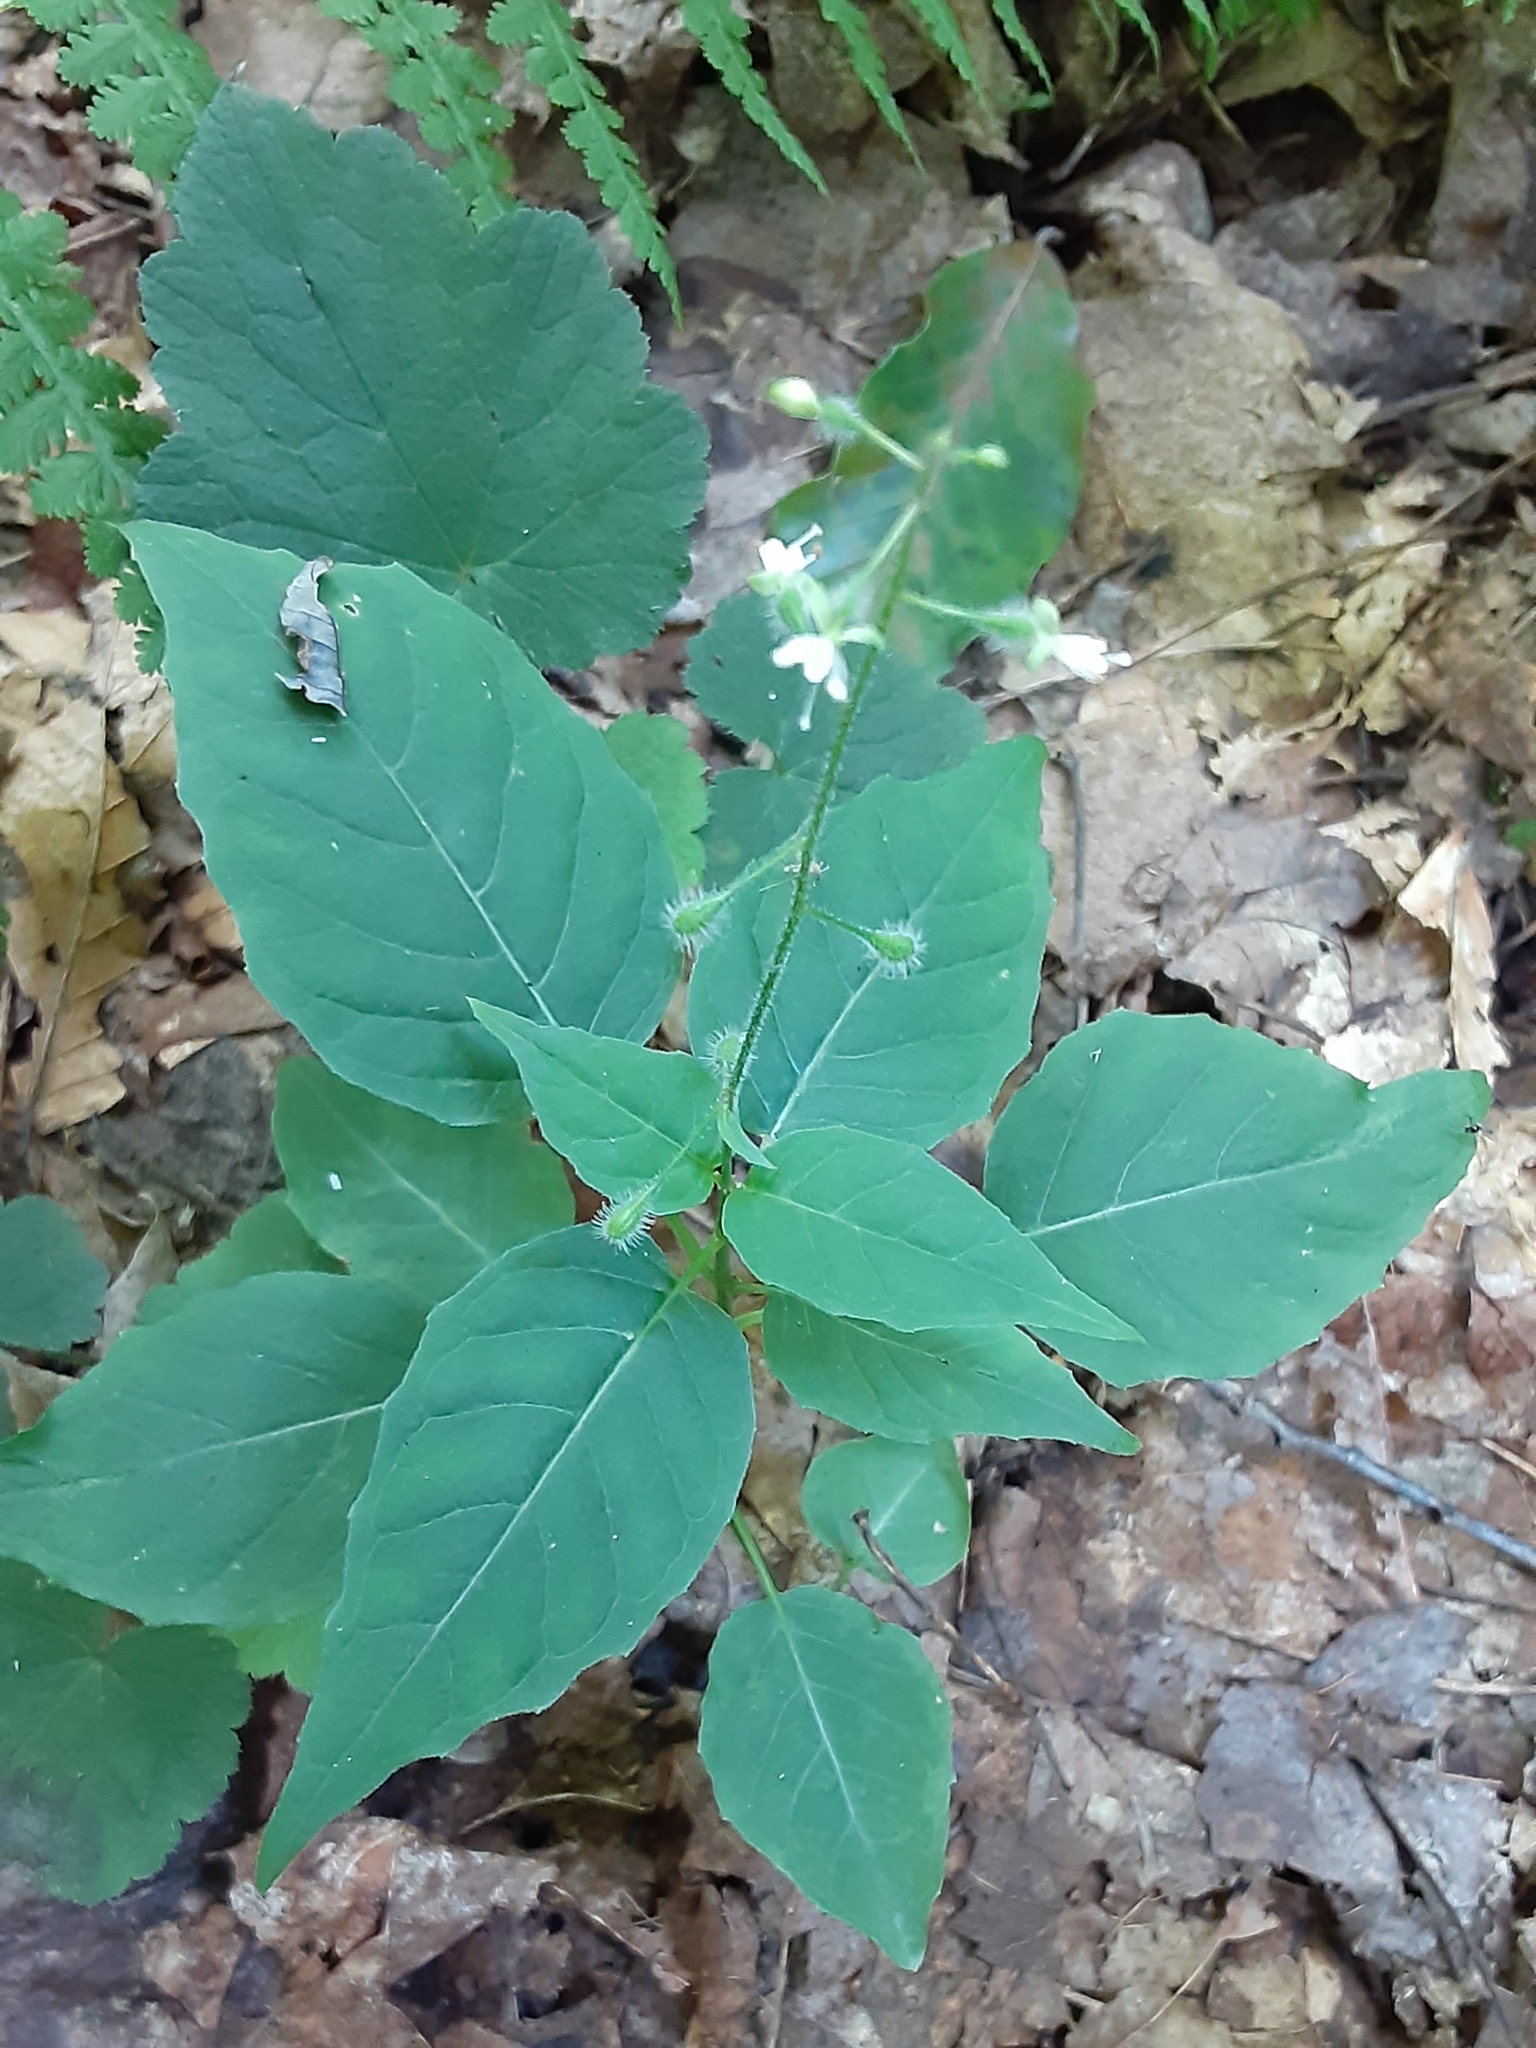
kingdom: Plantae
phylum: Tracheophyta
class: Magnoliopsida
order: Myrtales
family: Onagraceae
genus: Circaea
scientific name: Circaea canadensis
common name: Broad-leaved enchanter's nightshade
